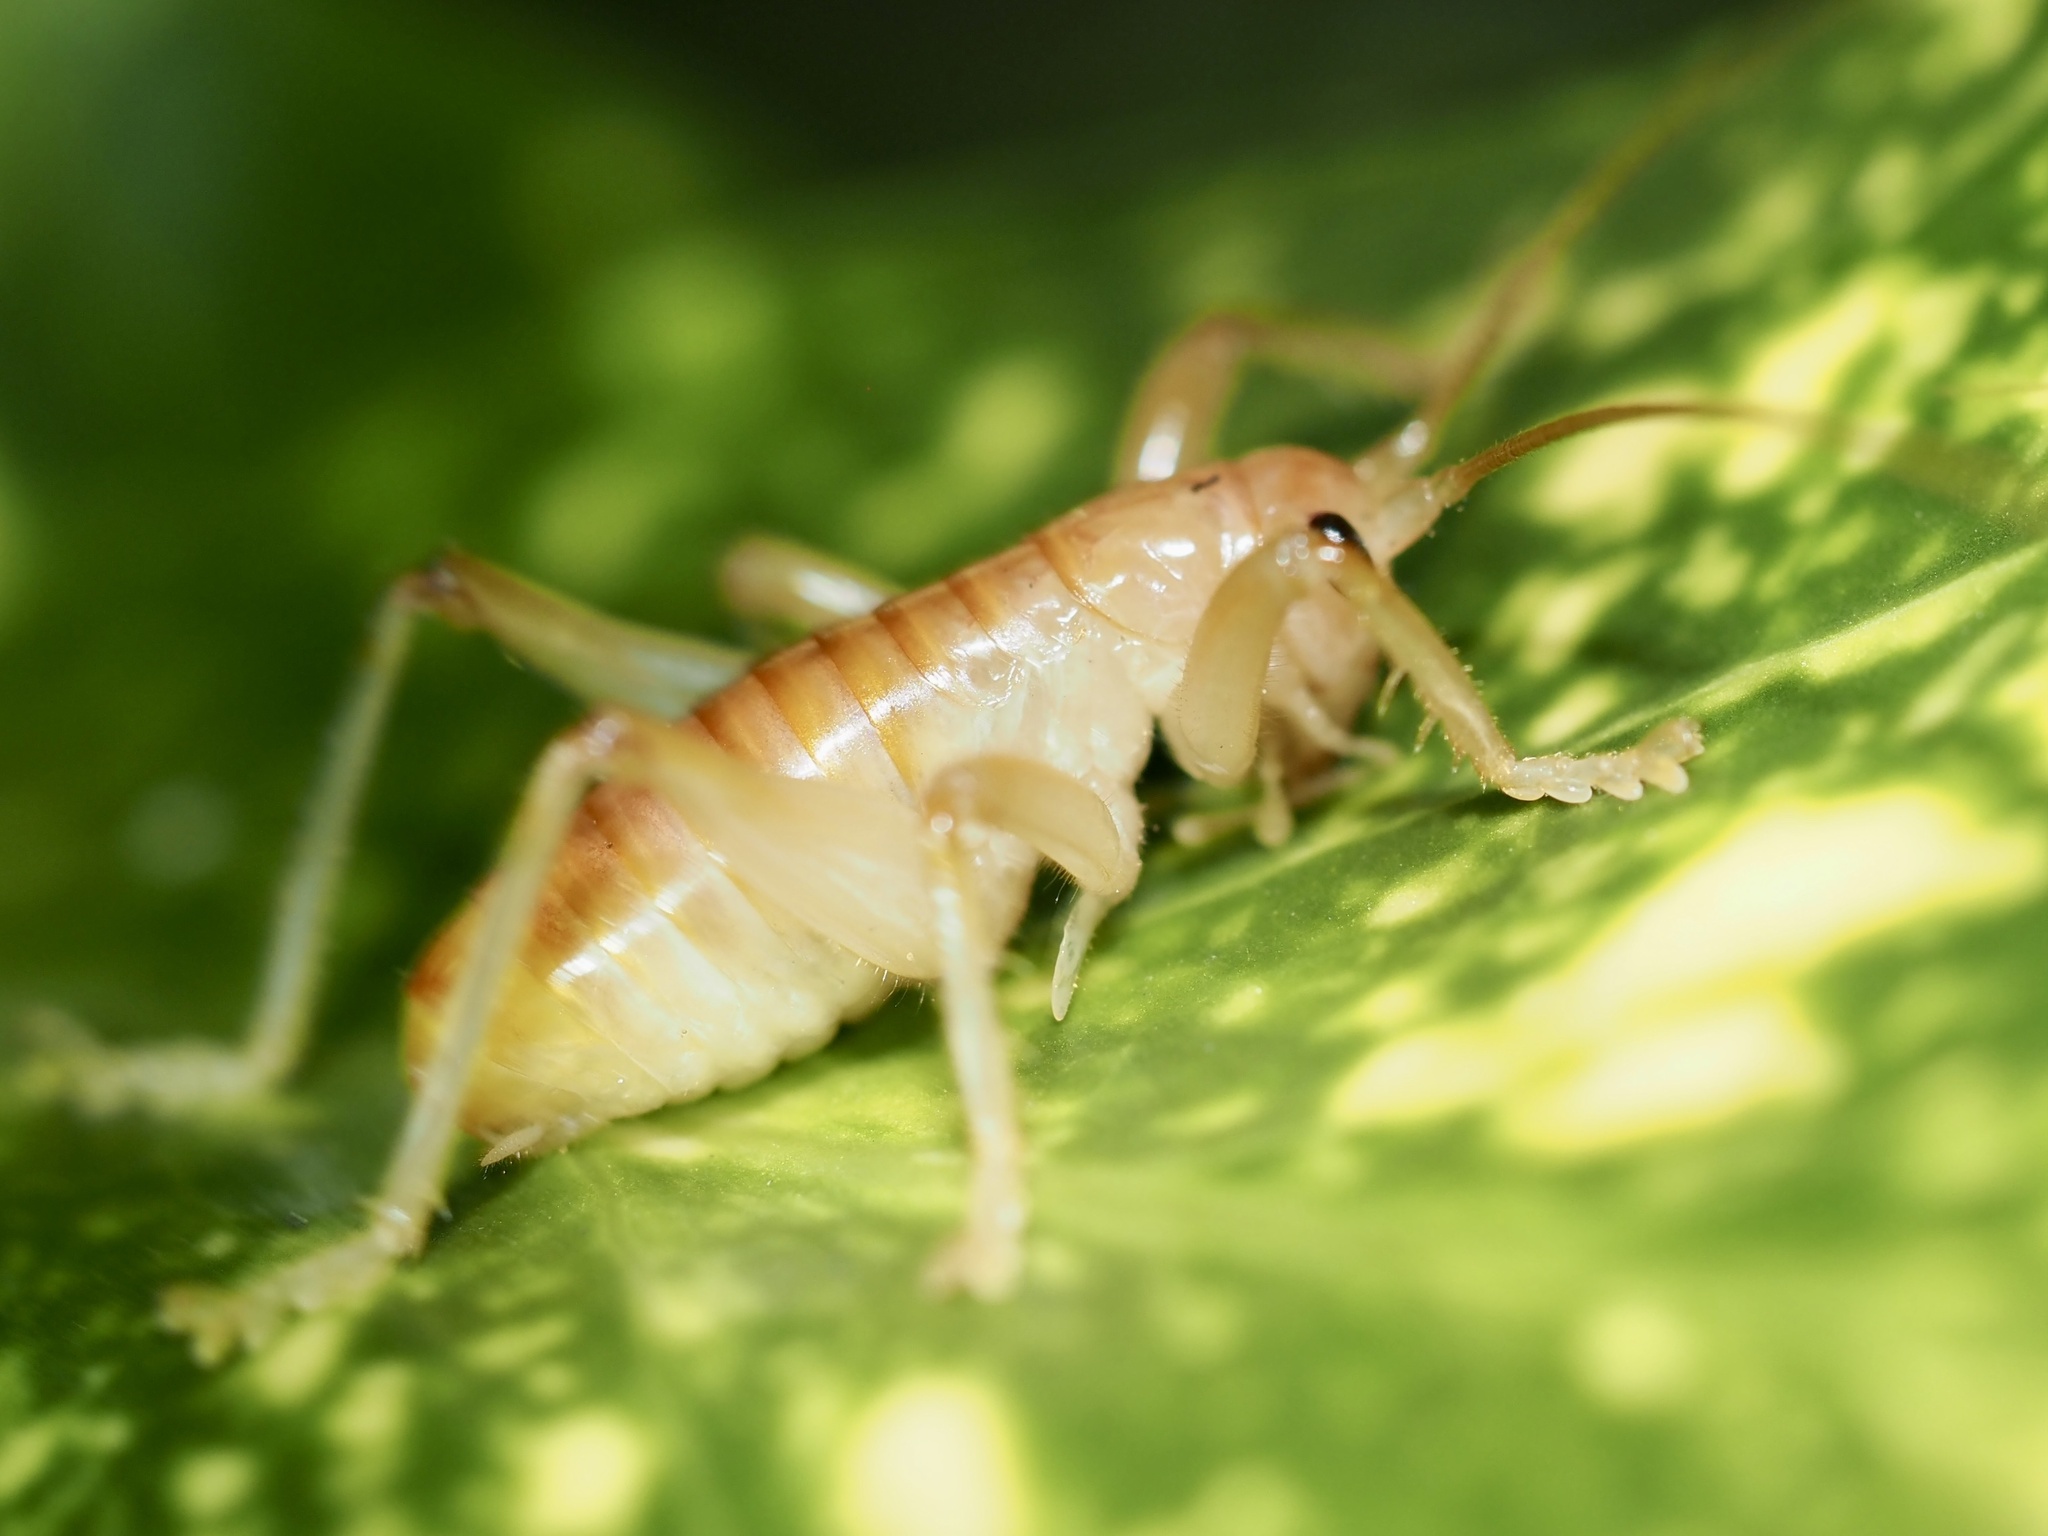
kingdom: Animalia
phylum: Arthropoda
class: Insecta
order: Orthoptera
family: Gryllacrididae
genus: Camptonotus
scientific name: Camptonotus carolinensis
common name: Carolina leaf-roller
